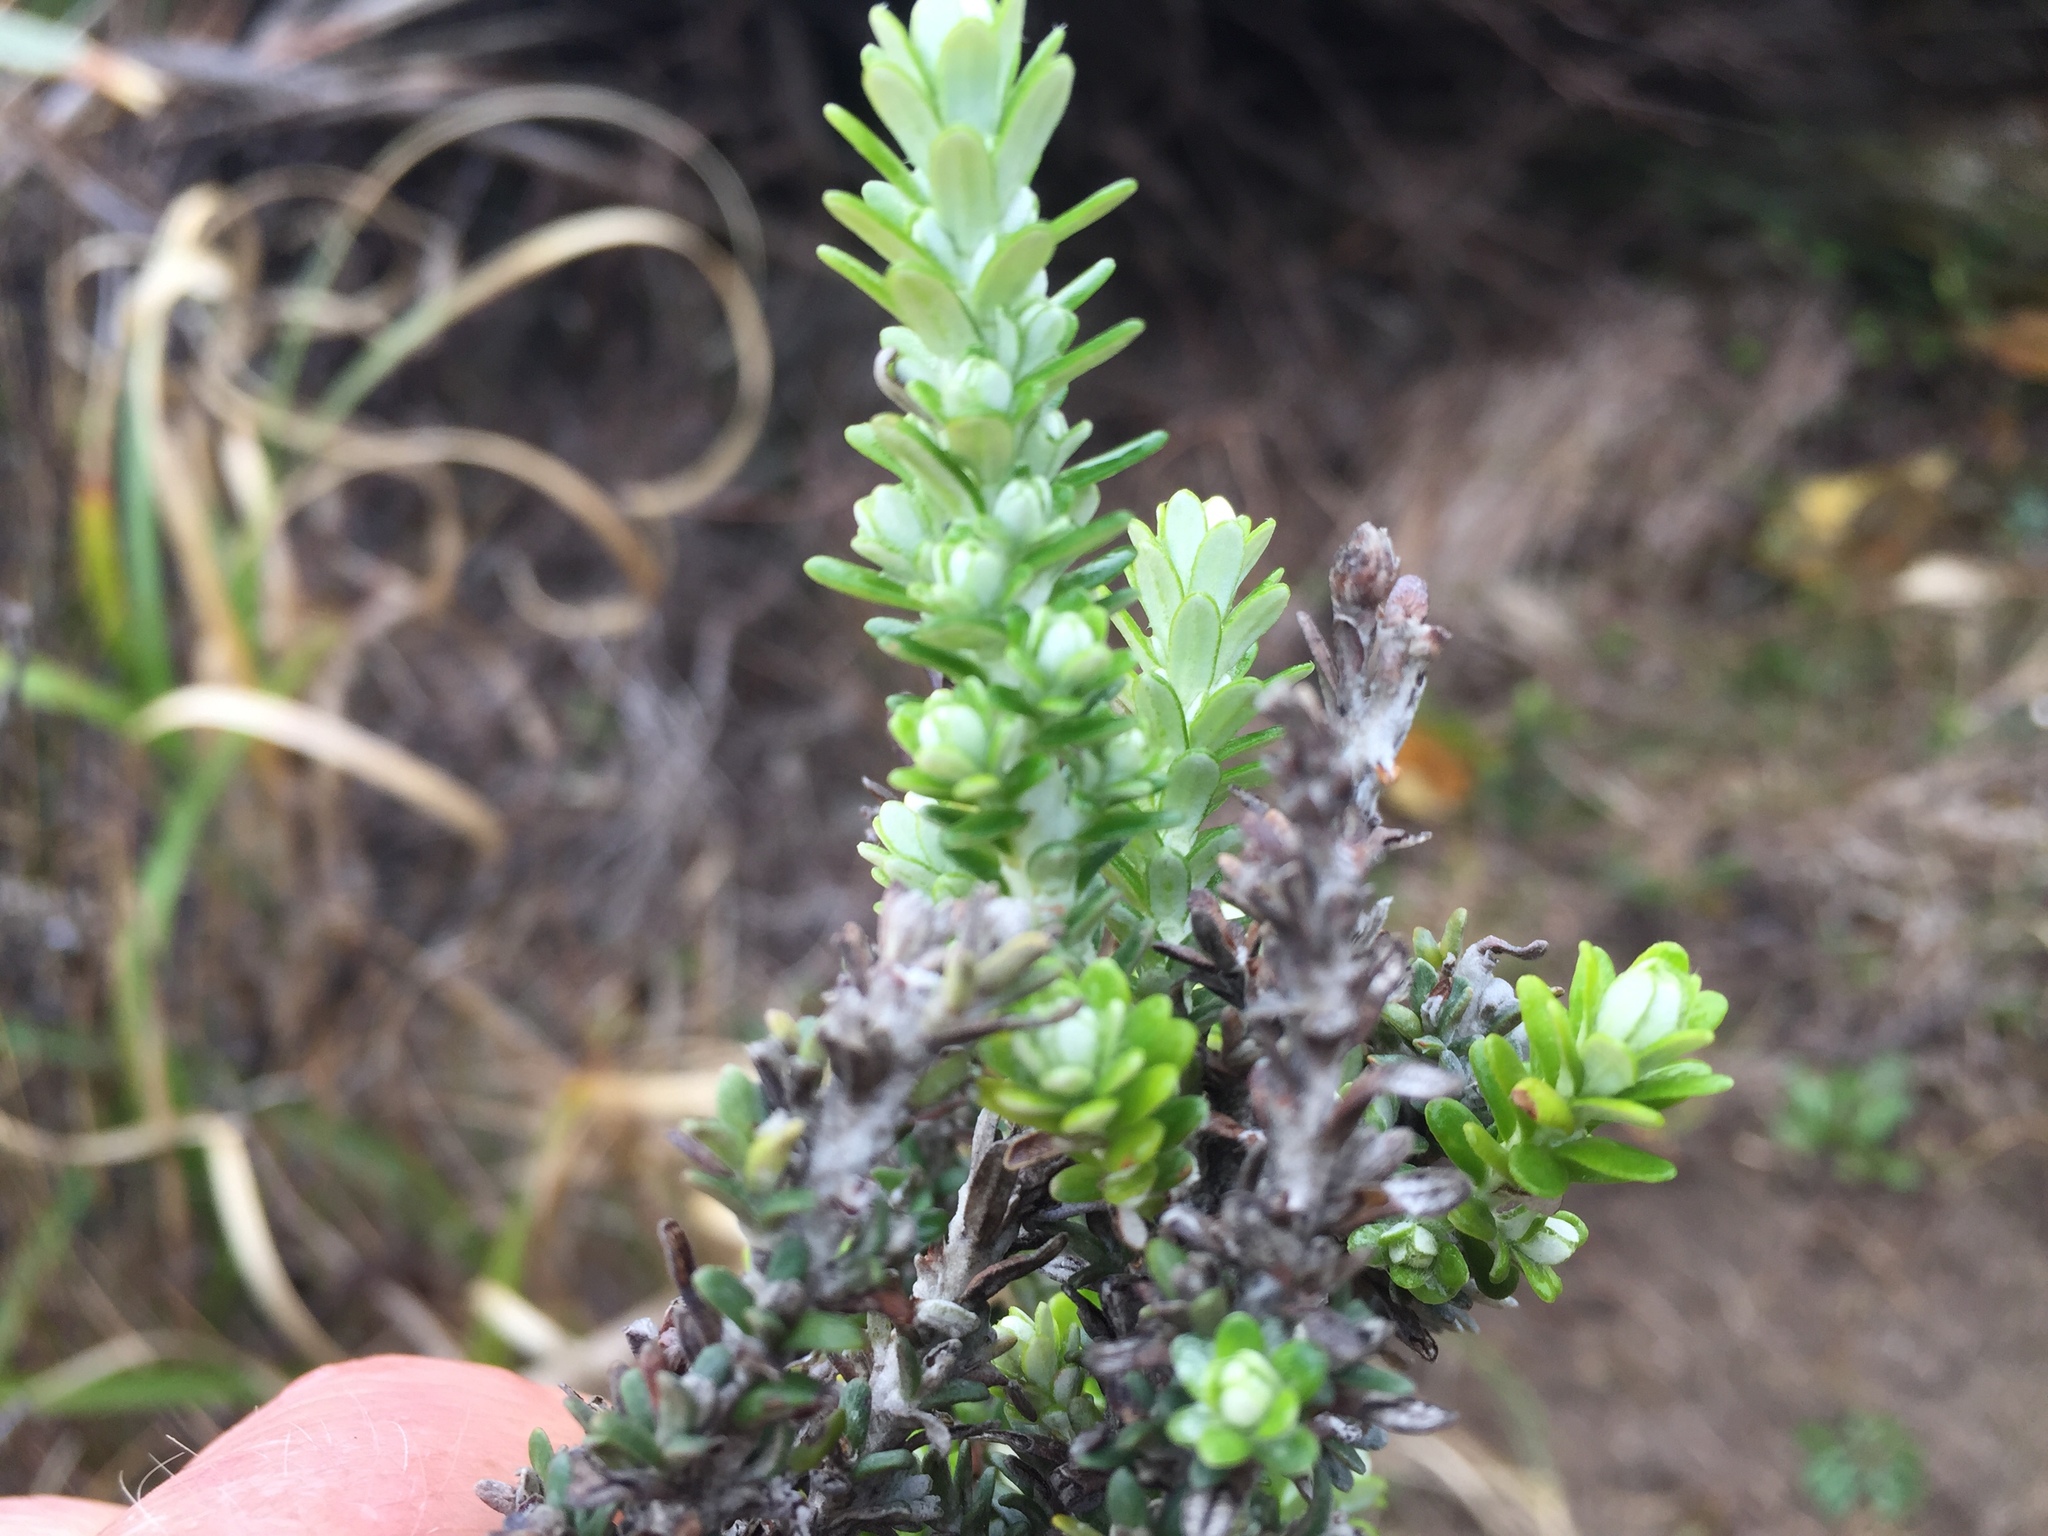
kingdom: Plantae
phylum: Tracheophyta
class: Magnoliopsida
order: Asterales
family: Asteraceae
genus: Ozothamnus
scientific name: Ozothamnus leptophyllus
